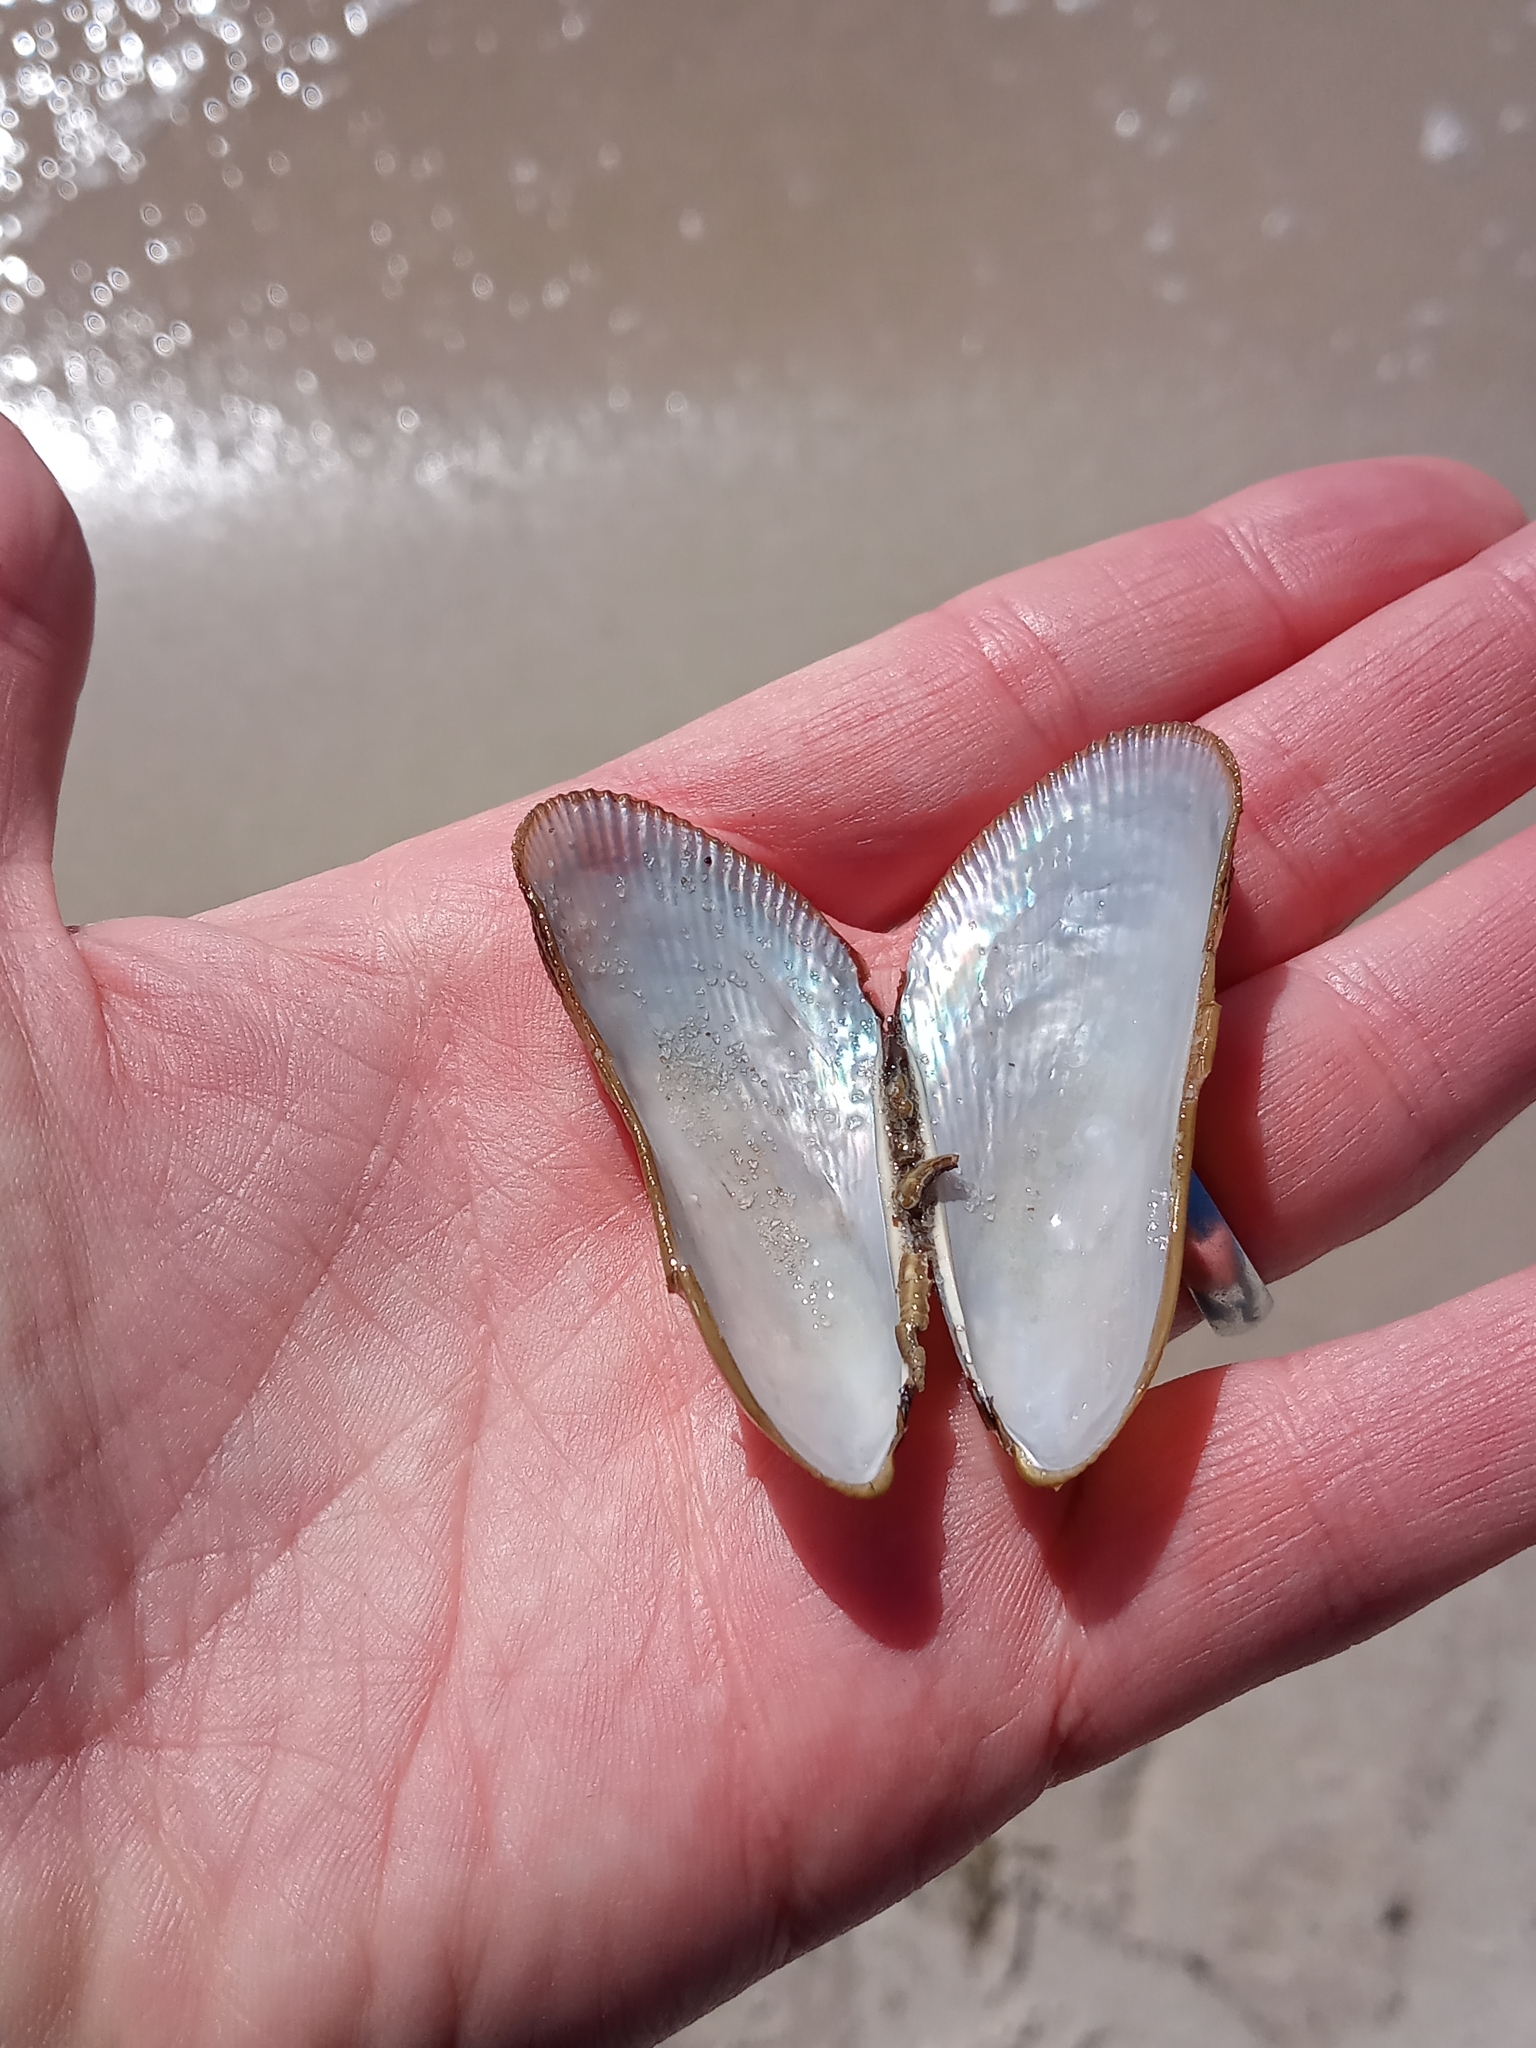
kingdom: Animalia
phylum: Mollusca
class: Bivalvia
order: Mytilida
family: Mytilidae
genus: Geukensia
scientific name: Geukensia granosissima
